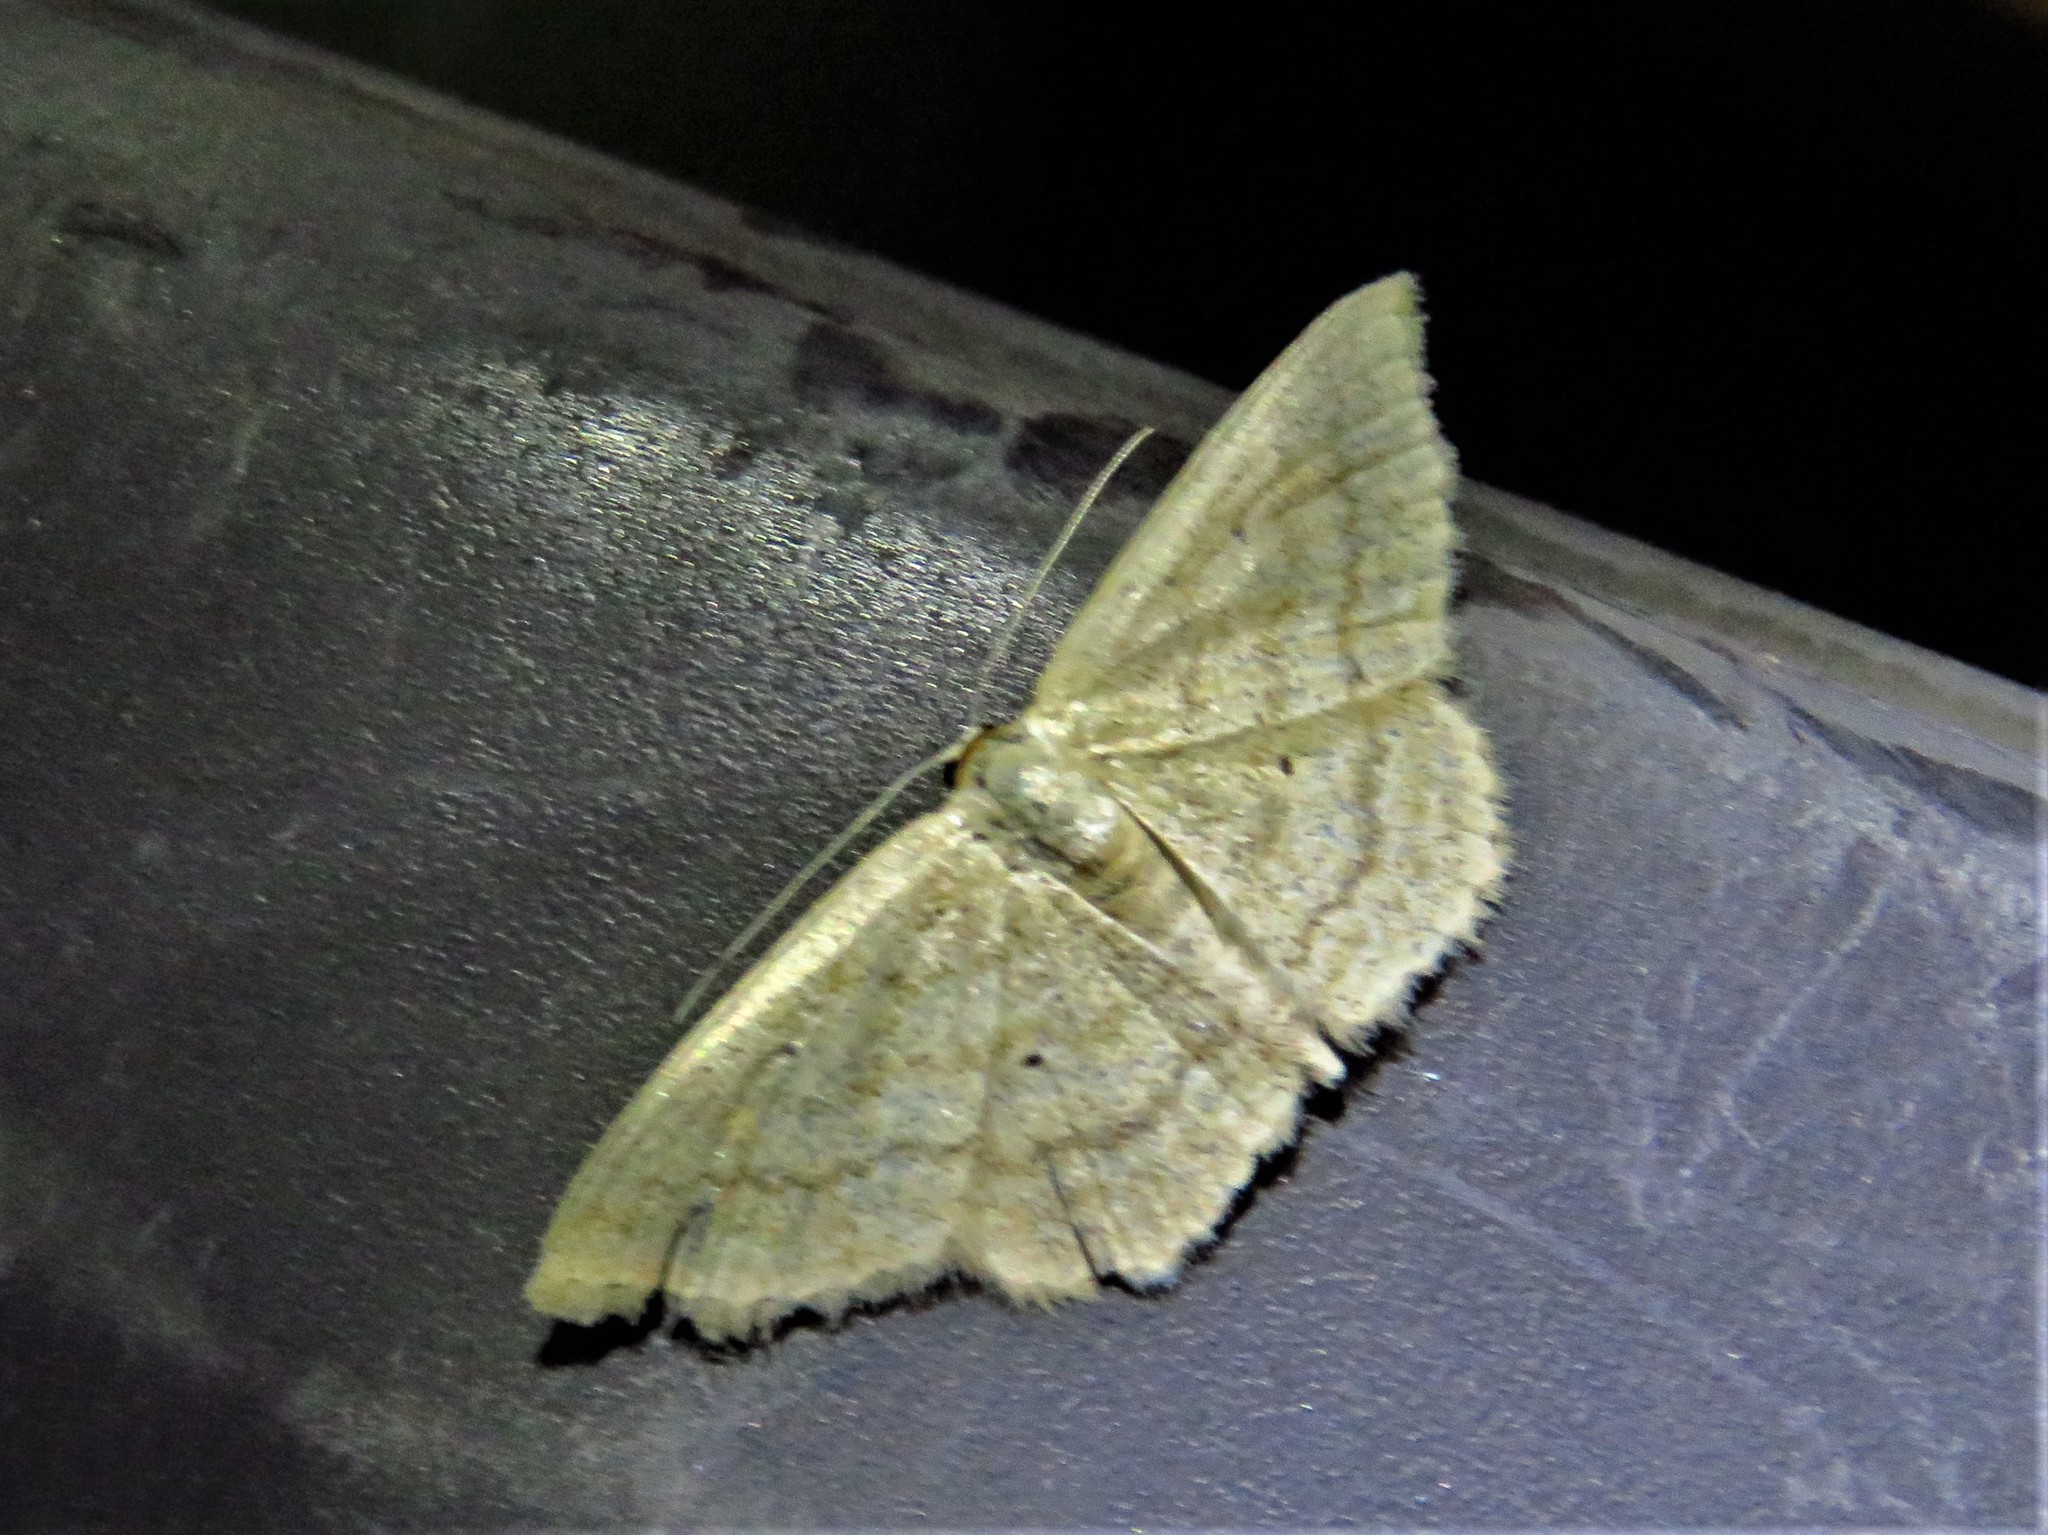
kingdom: Animalia
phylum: Arthropoda
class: Insecta
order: Lepidoptera
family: Geometridae
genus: Scopula
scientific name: Scopula inductata
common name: Soft-lined wave
